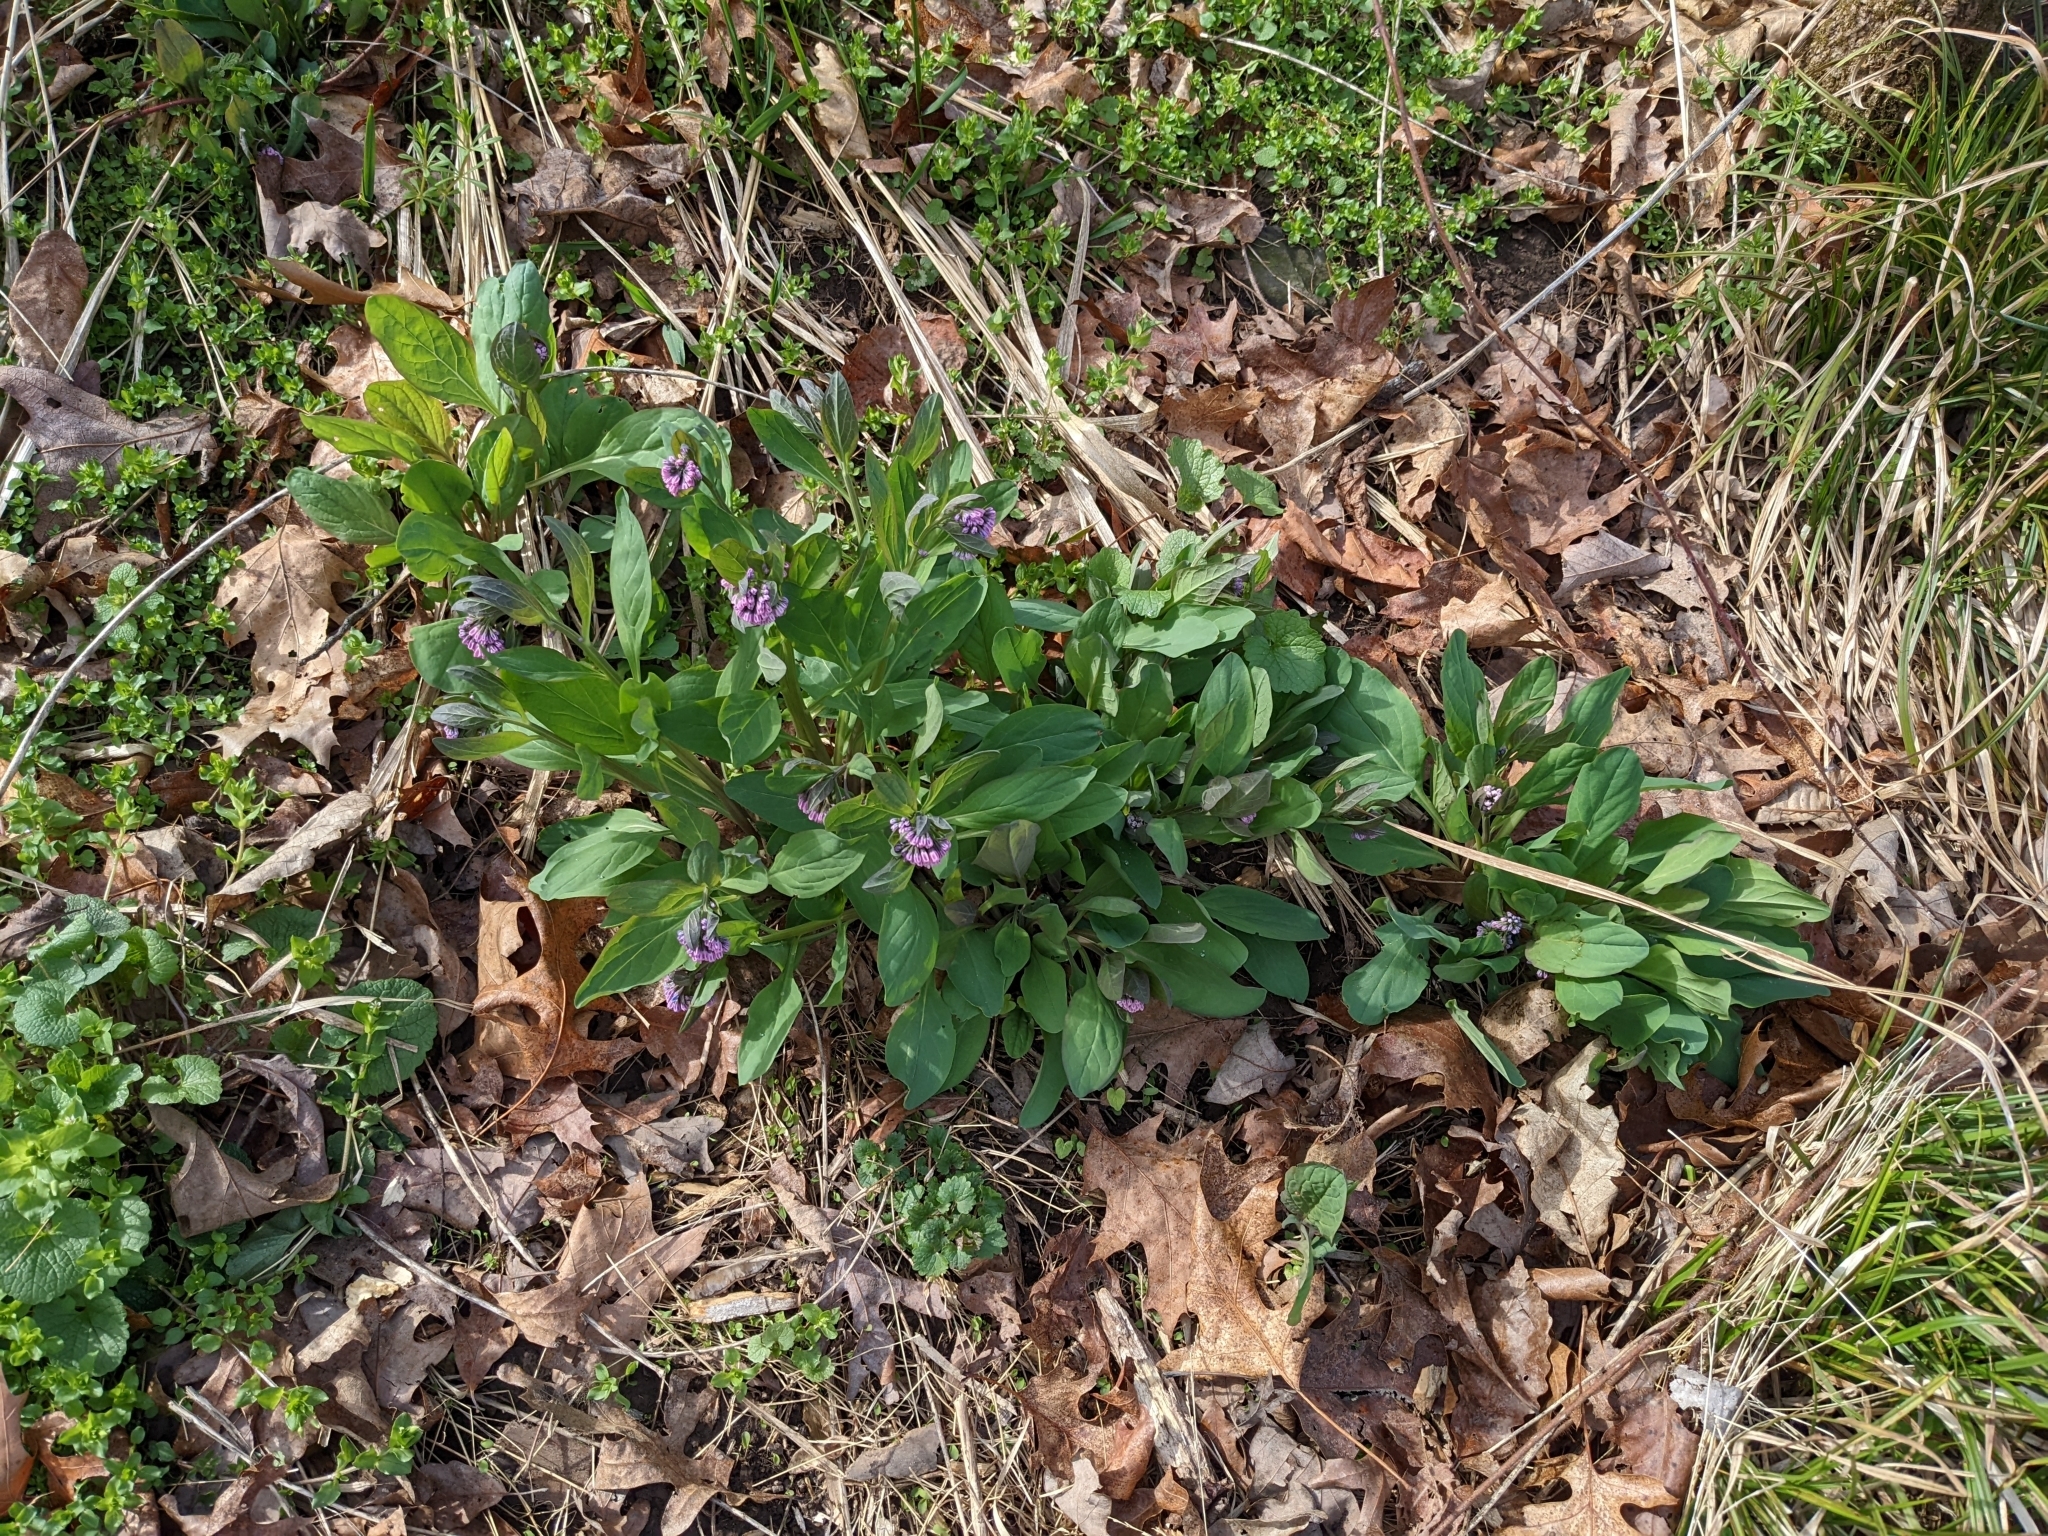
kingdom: Plantae
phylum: Tracheophyta
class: Magnoliopsida
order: Boraginales
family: Boraginaceae
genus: Mertensia
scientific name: Mertensia virginica
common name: Virginia bluebells
